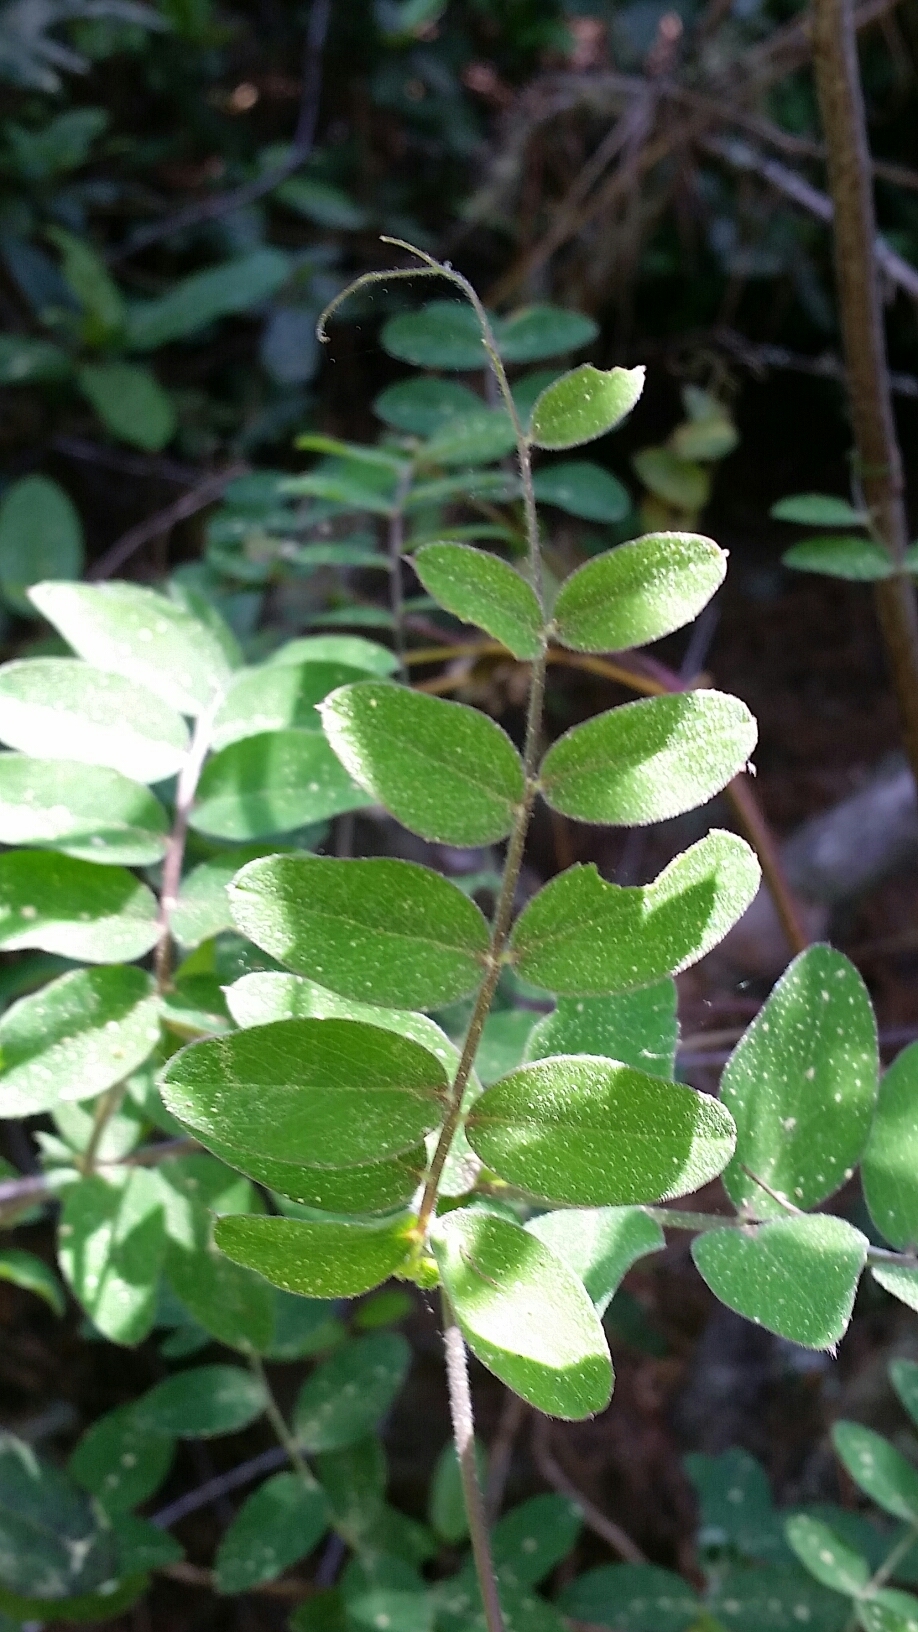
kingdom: Plantae
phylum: Tracheophyta
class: Magnoliopsida
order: Fabales
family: Fabaceae
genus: Lathyrus
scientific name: Lathyrus vestitus
